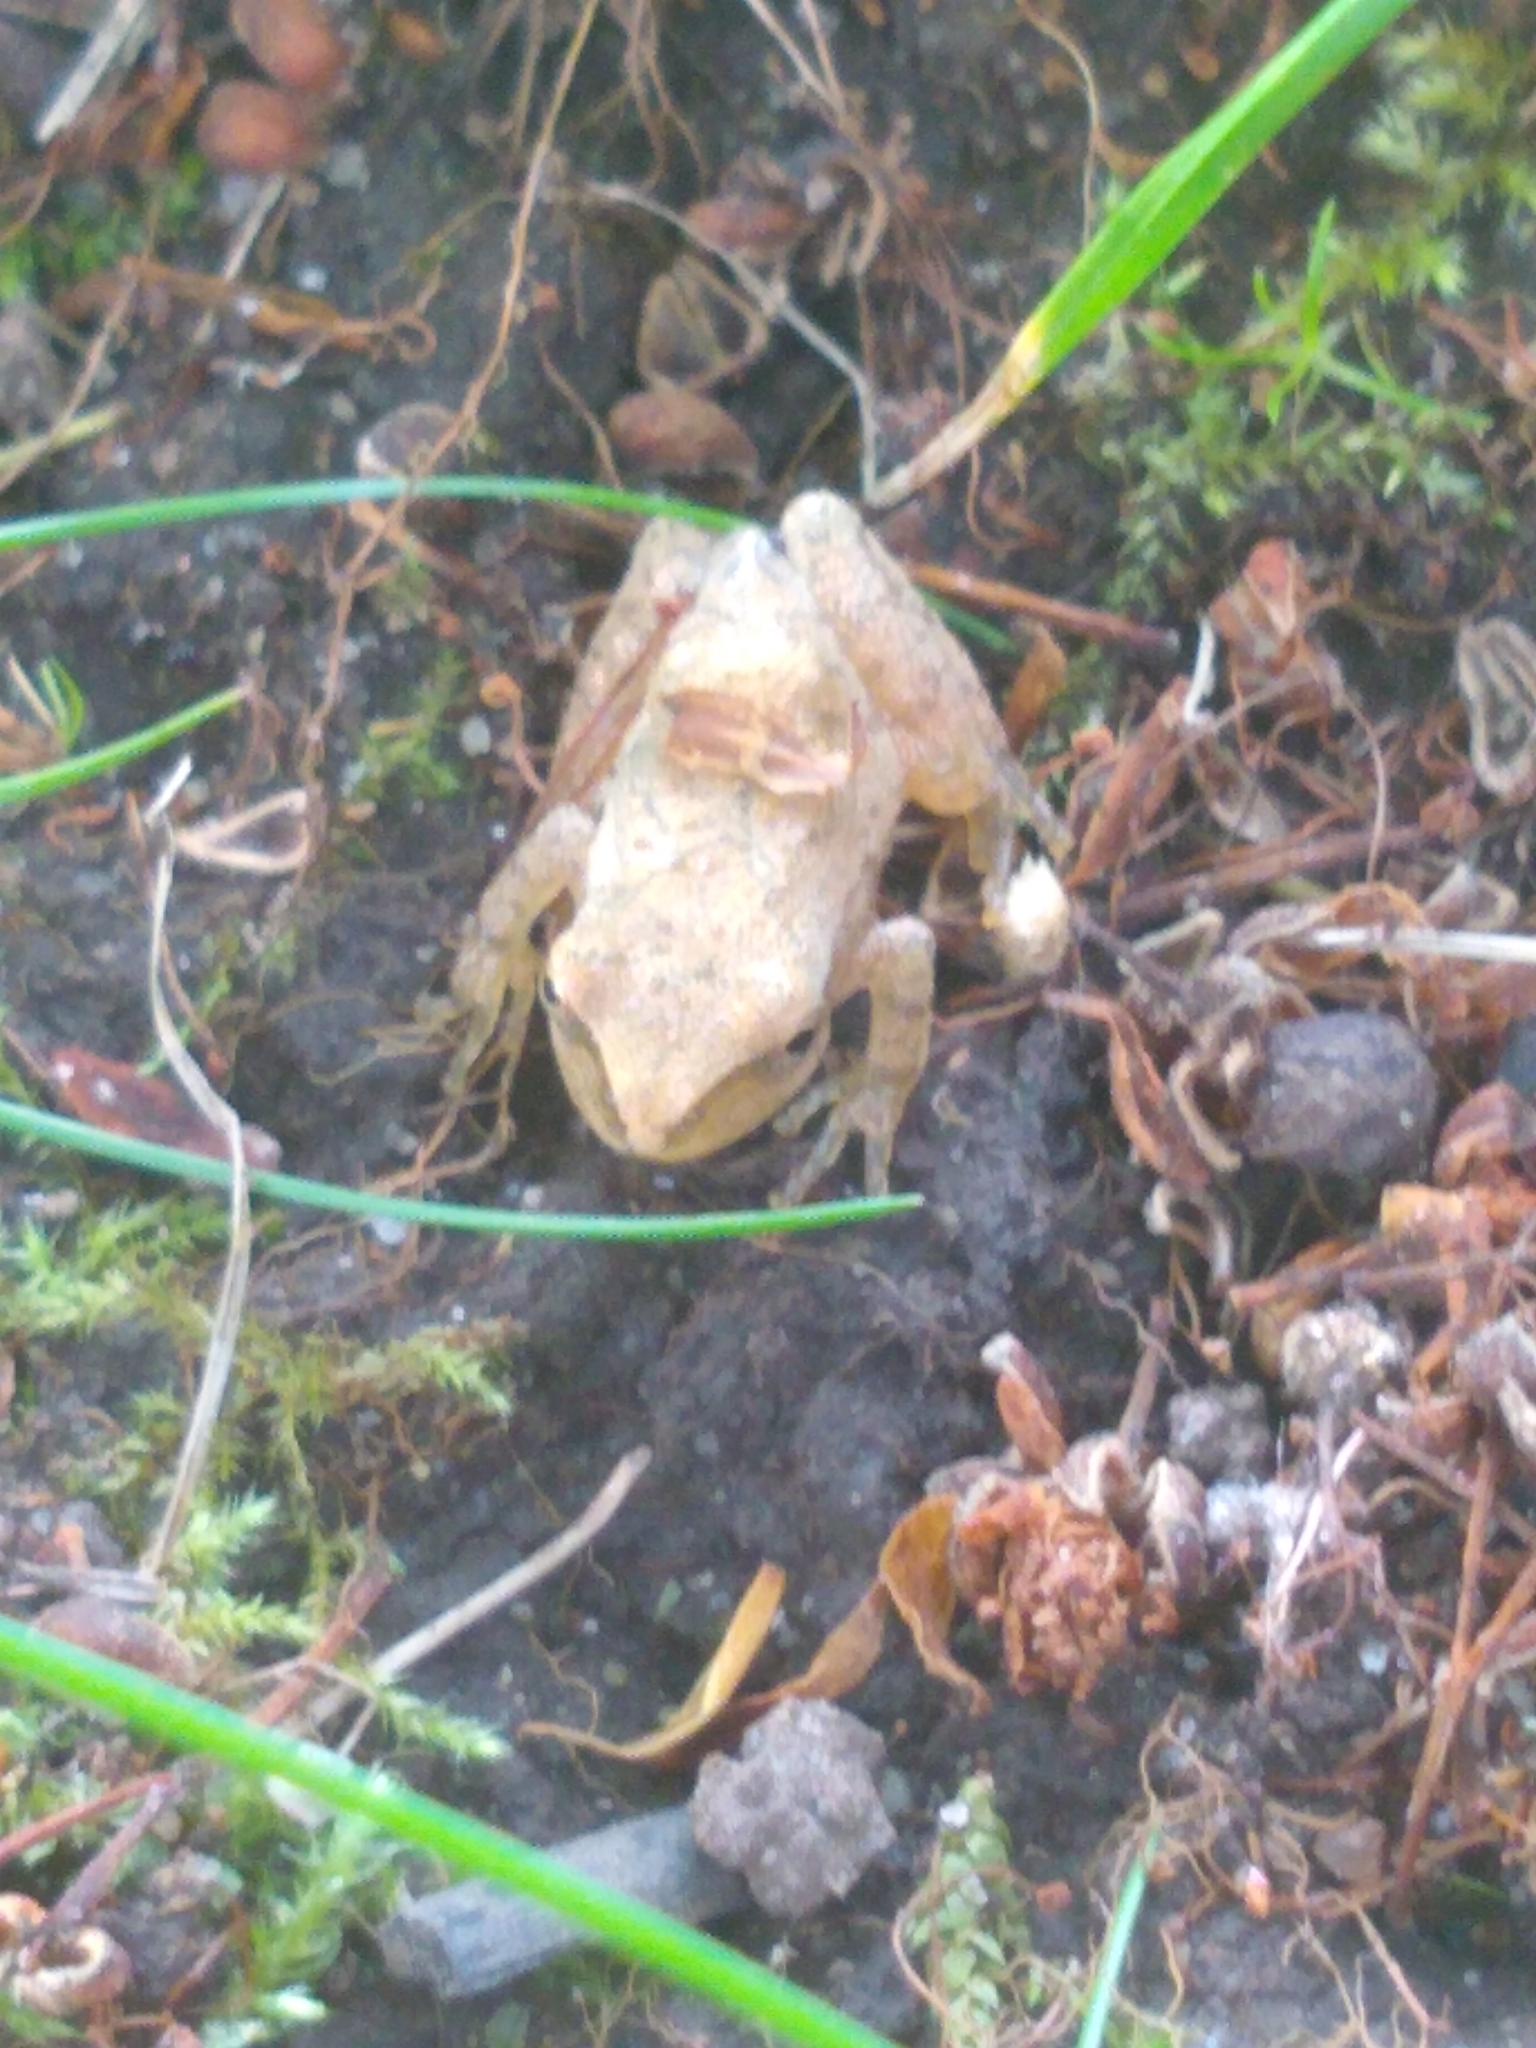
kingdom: Animalia
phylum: Chordata
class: Amphibia
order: Anura
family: Hylidae
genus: Pseudacris
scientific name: Pseudacris crucifer
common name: Spring peeper
